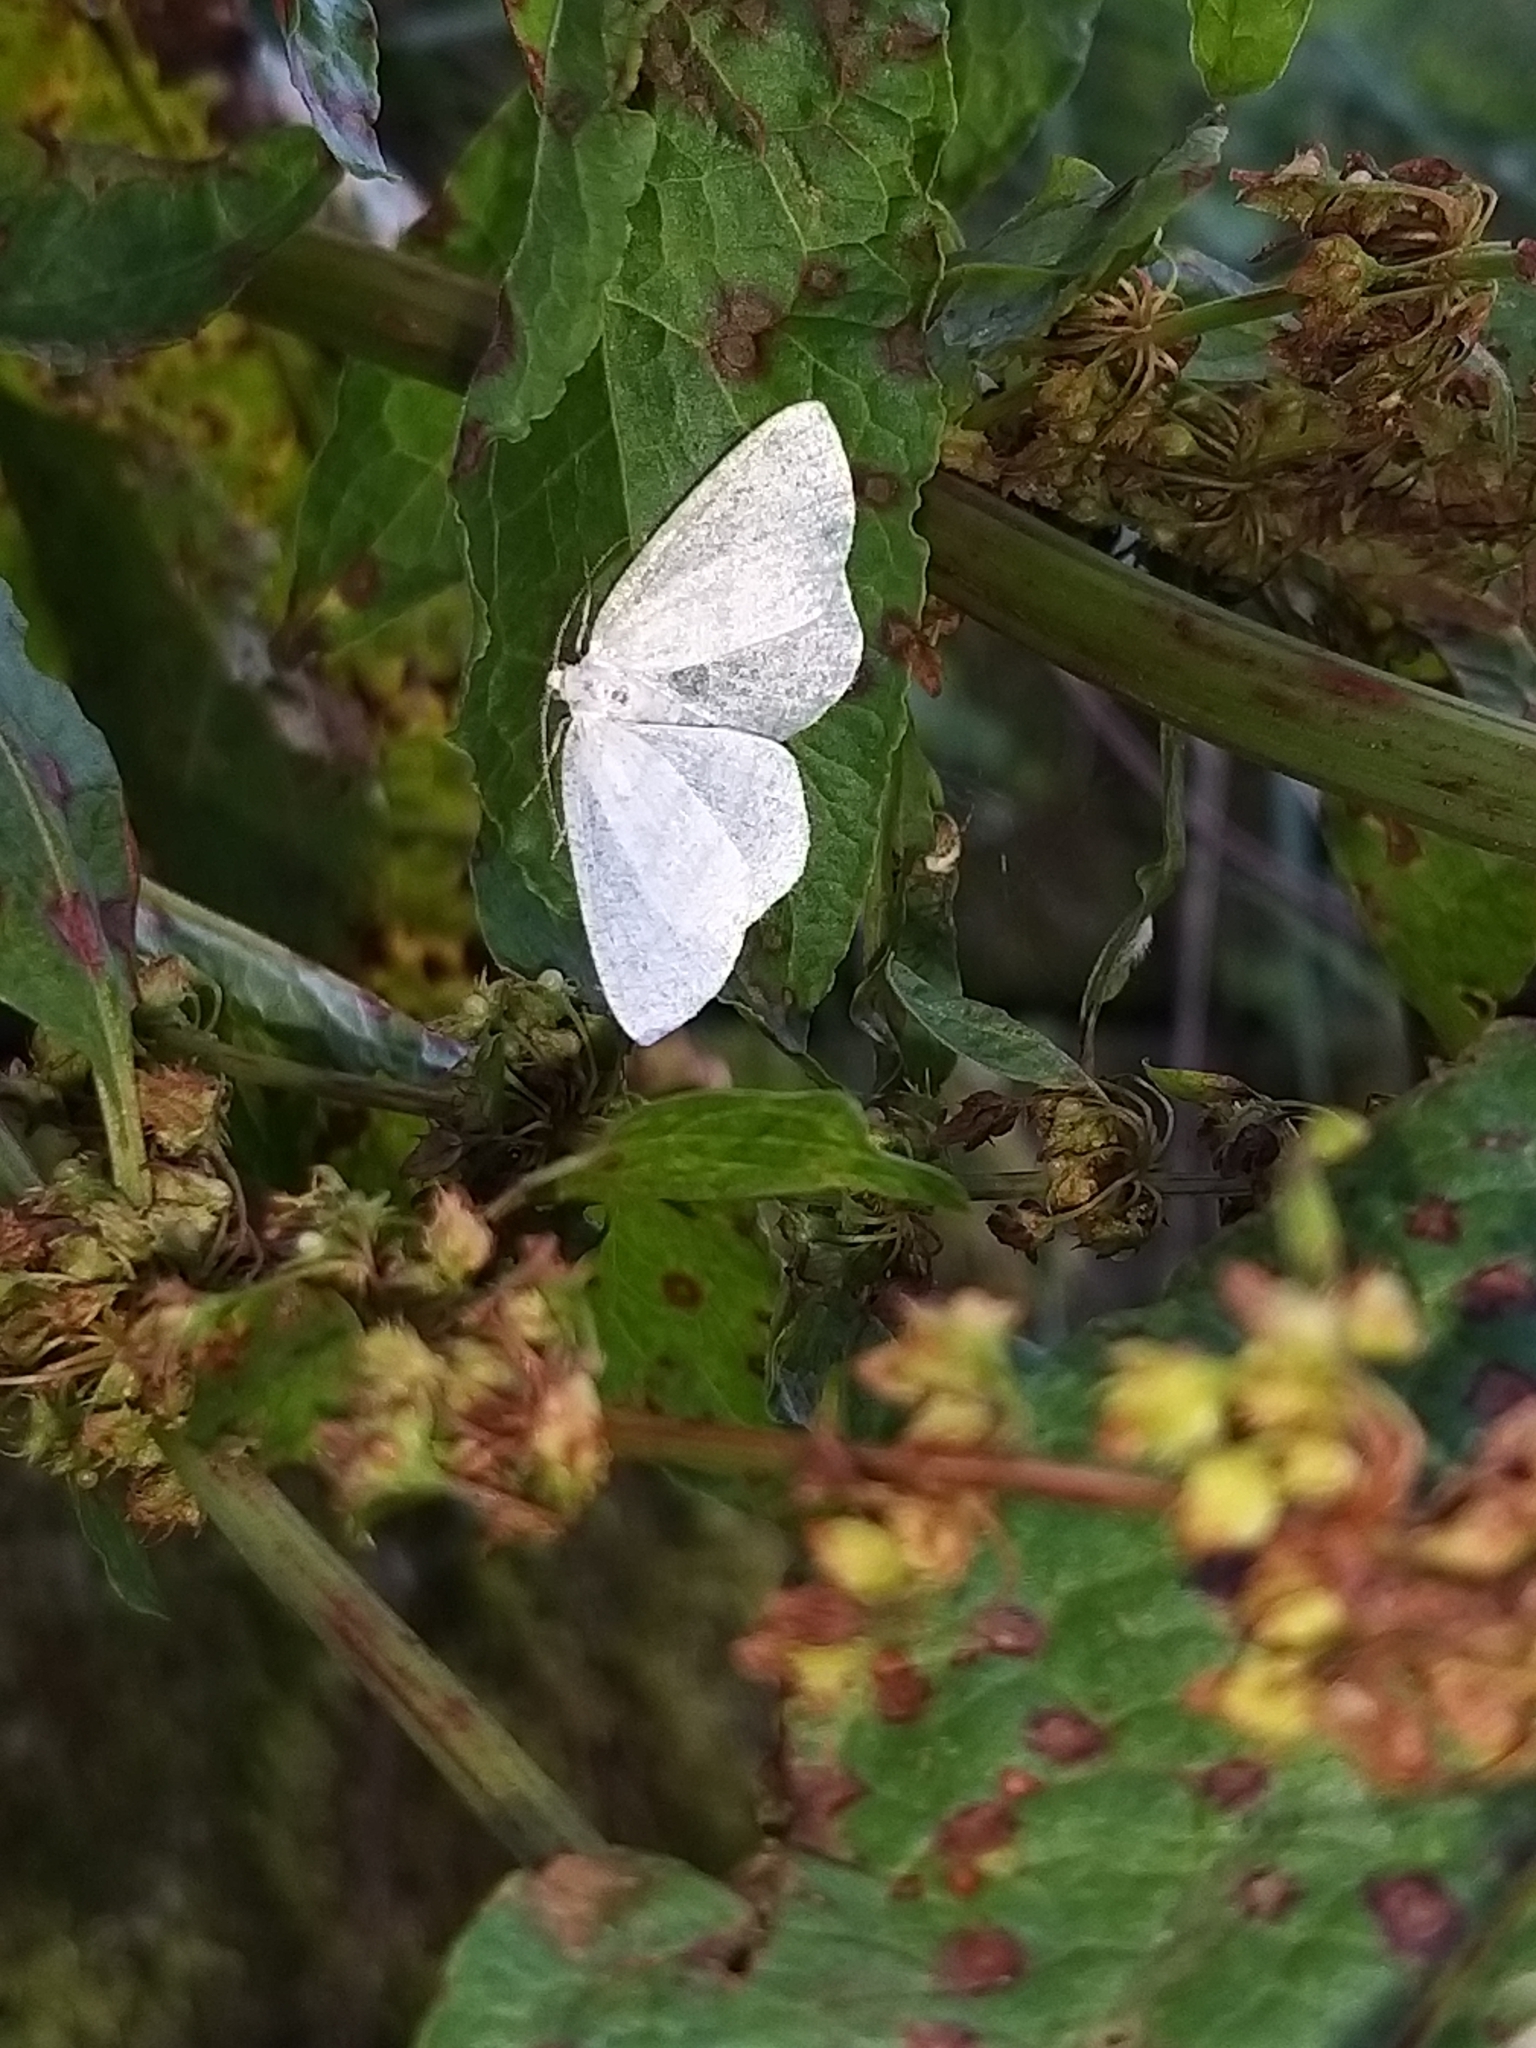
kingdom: Animalia
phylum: Arthropoda
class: Insecta
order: Lepidoptera
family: Geometridae
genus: Cabera
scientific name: Cabera pusaria
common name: Common white wave
